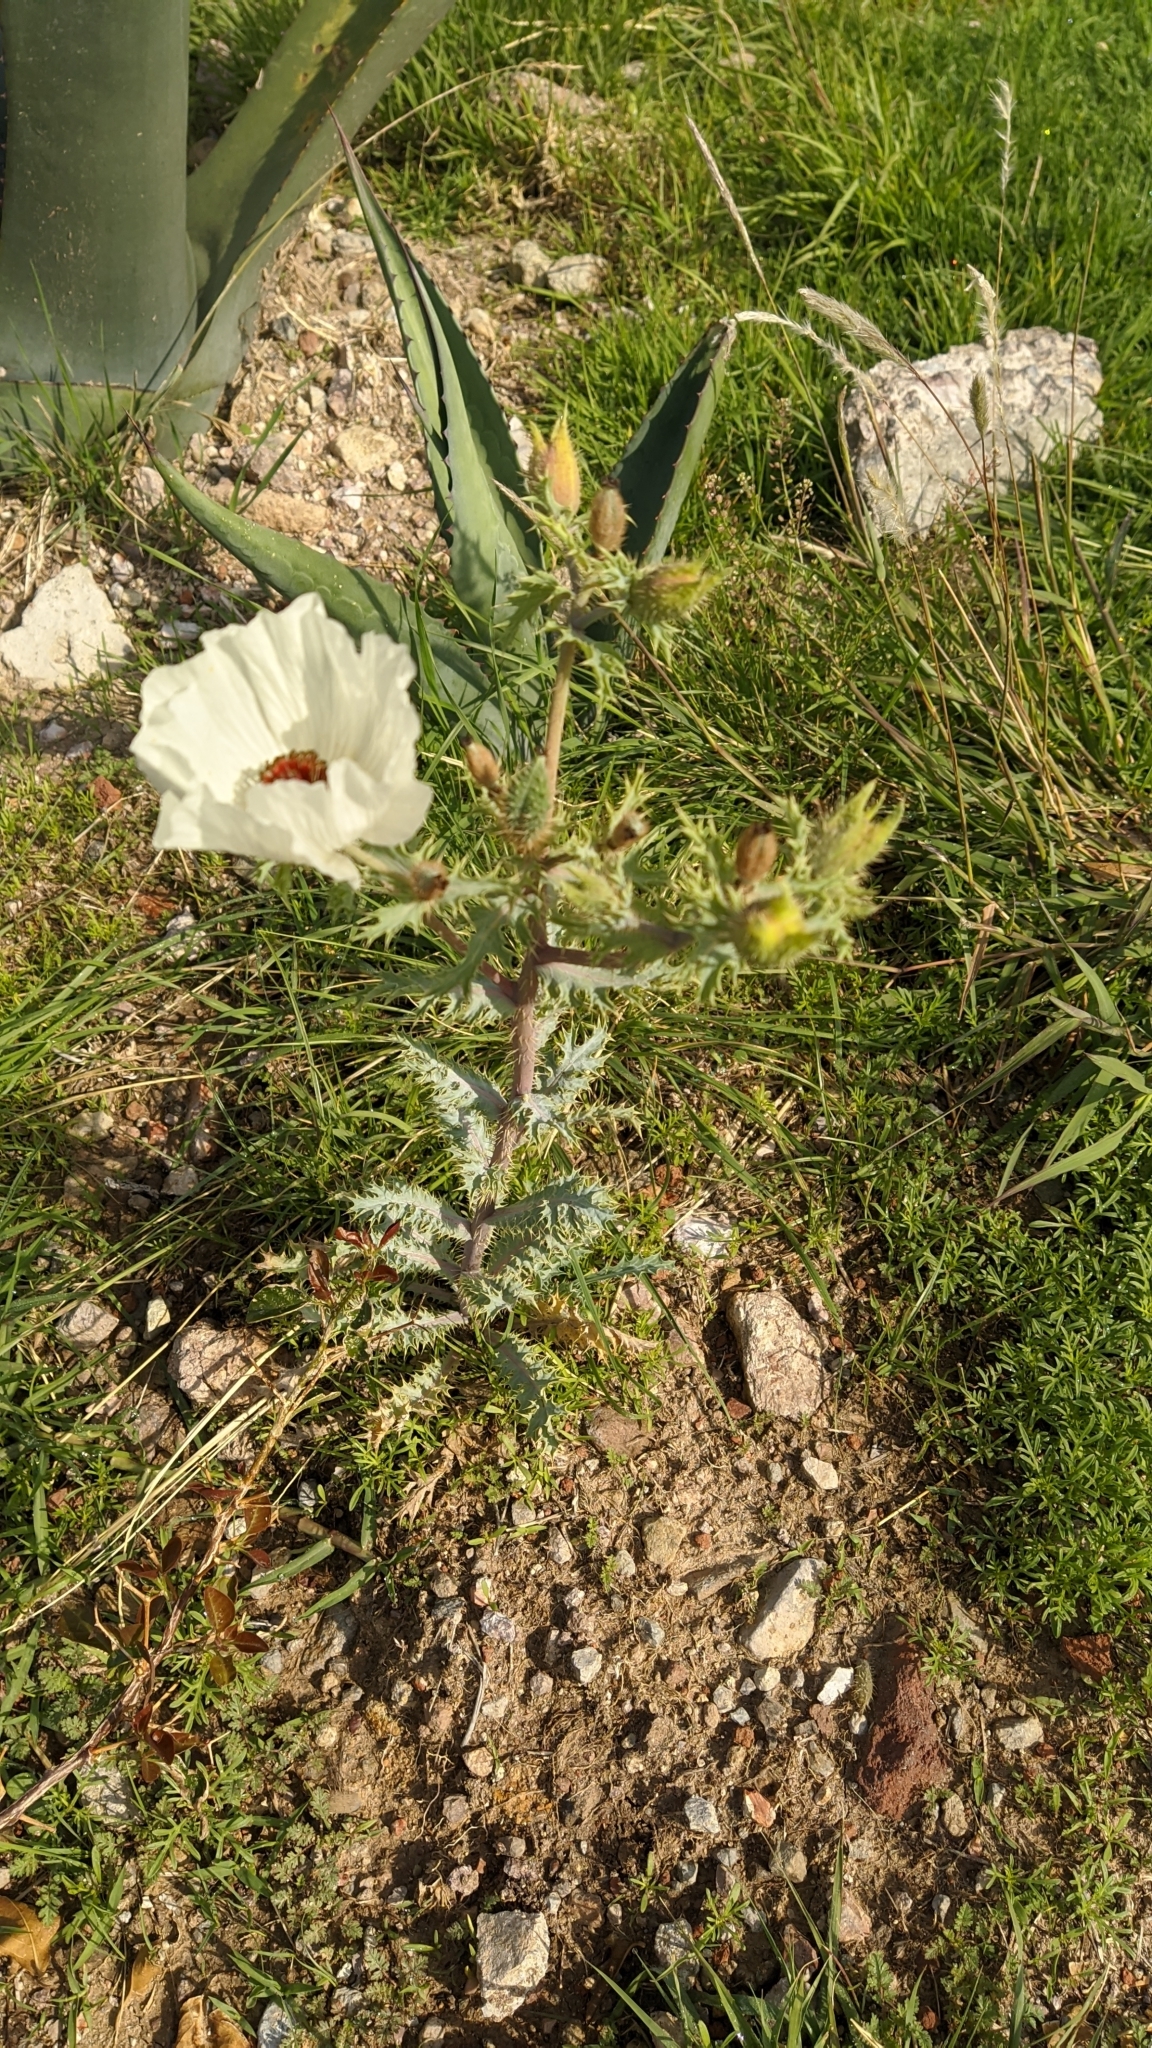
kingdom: Plantae
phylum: Tracheophyta
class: Magnoliopsida
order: Ranunculales
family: Papaveraceae
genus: Argemone
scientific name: Argemone platyceras
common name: Crested-poppy
